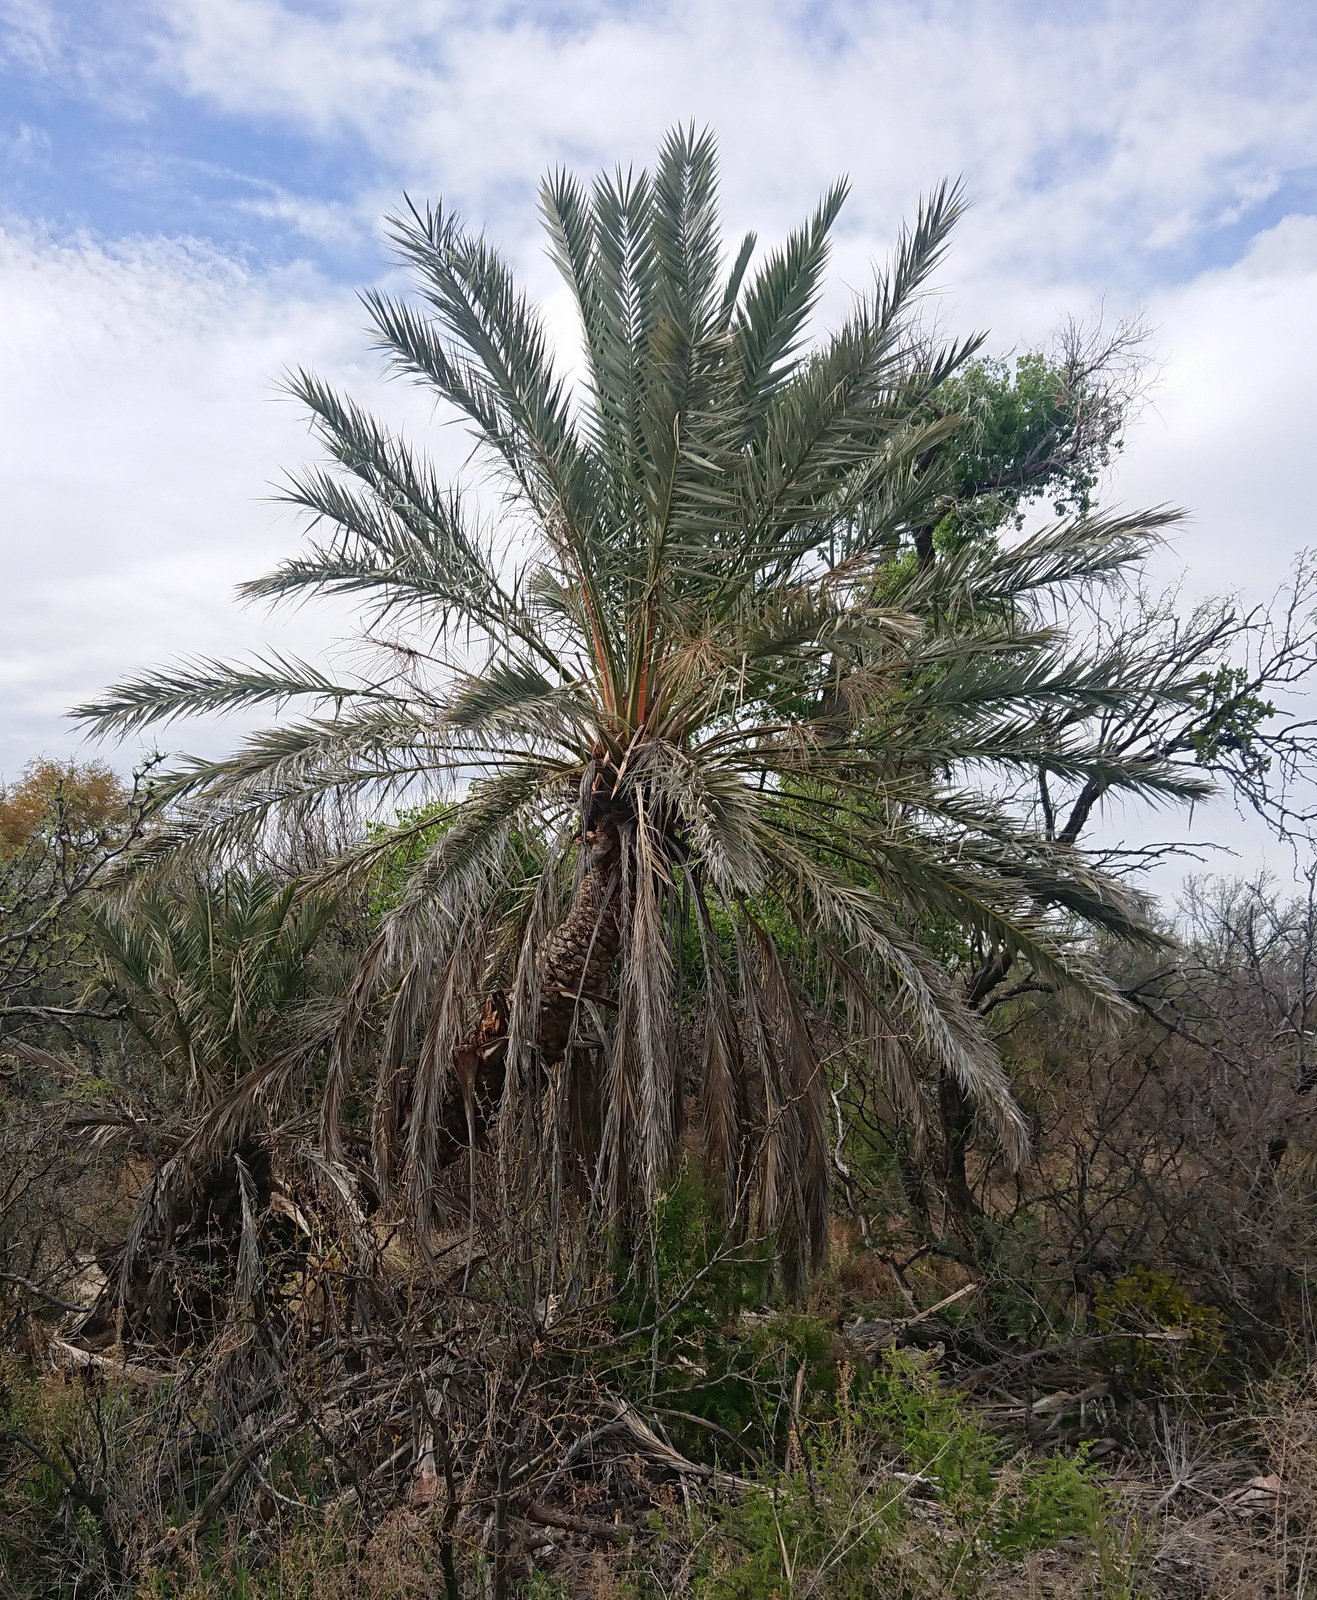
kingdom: Plantae
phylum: Tracheophyta
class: Liliopsida
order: Arecales
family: Arecaceae
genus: Phoenix
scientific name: Phoenix dactylifera
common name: Date palm
